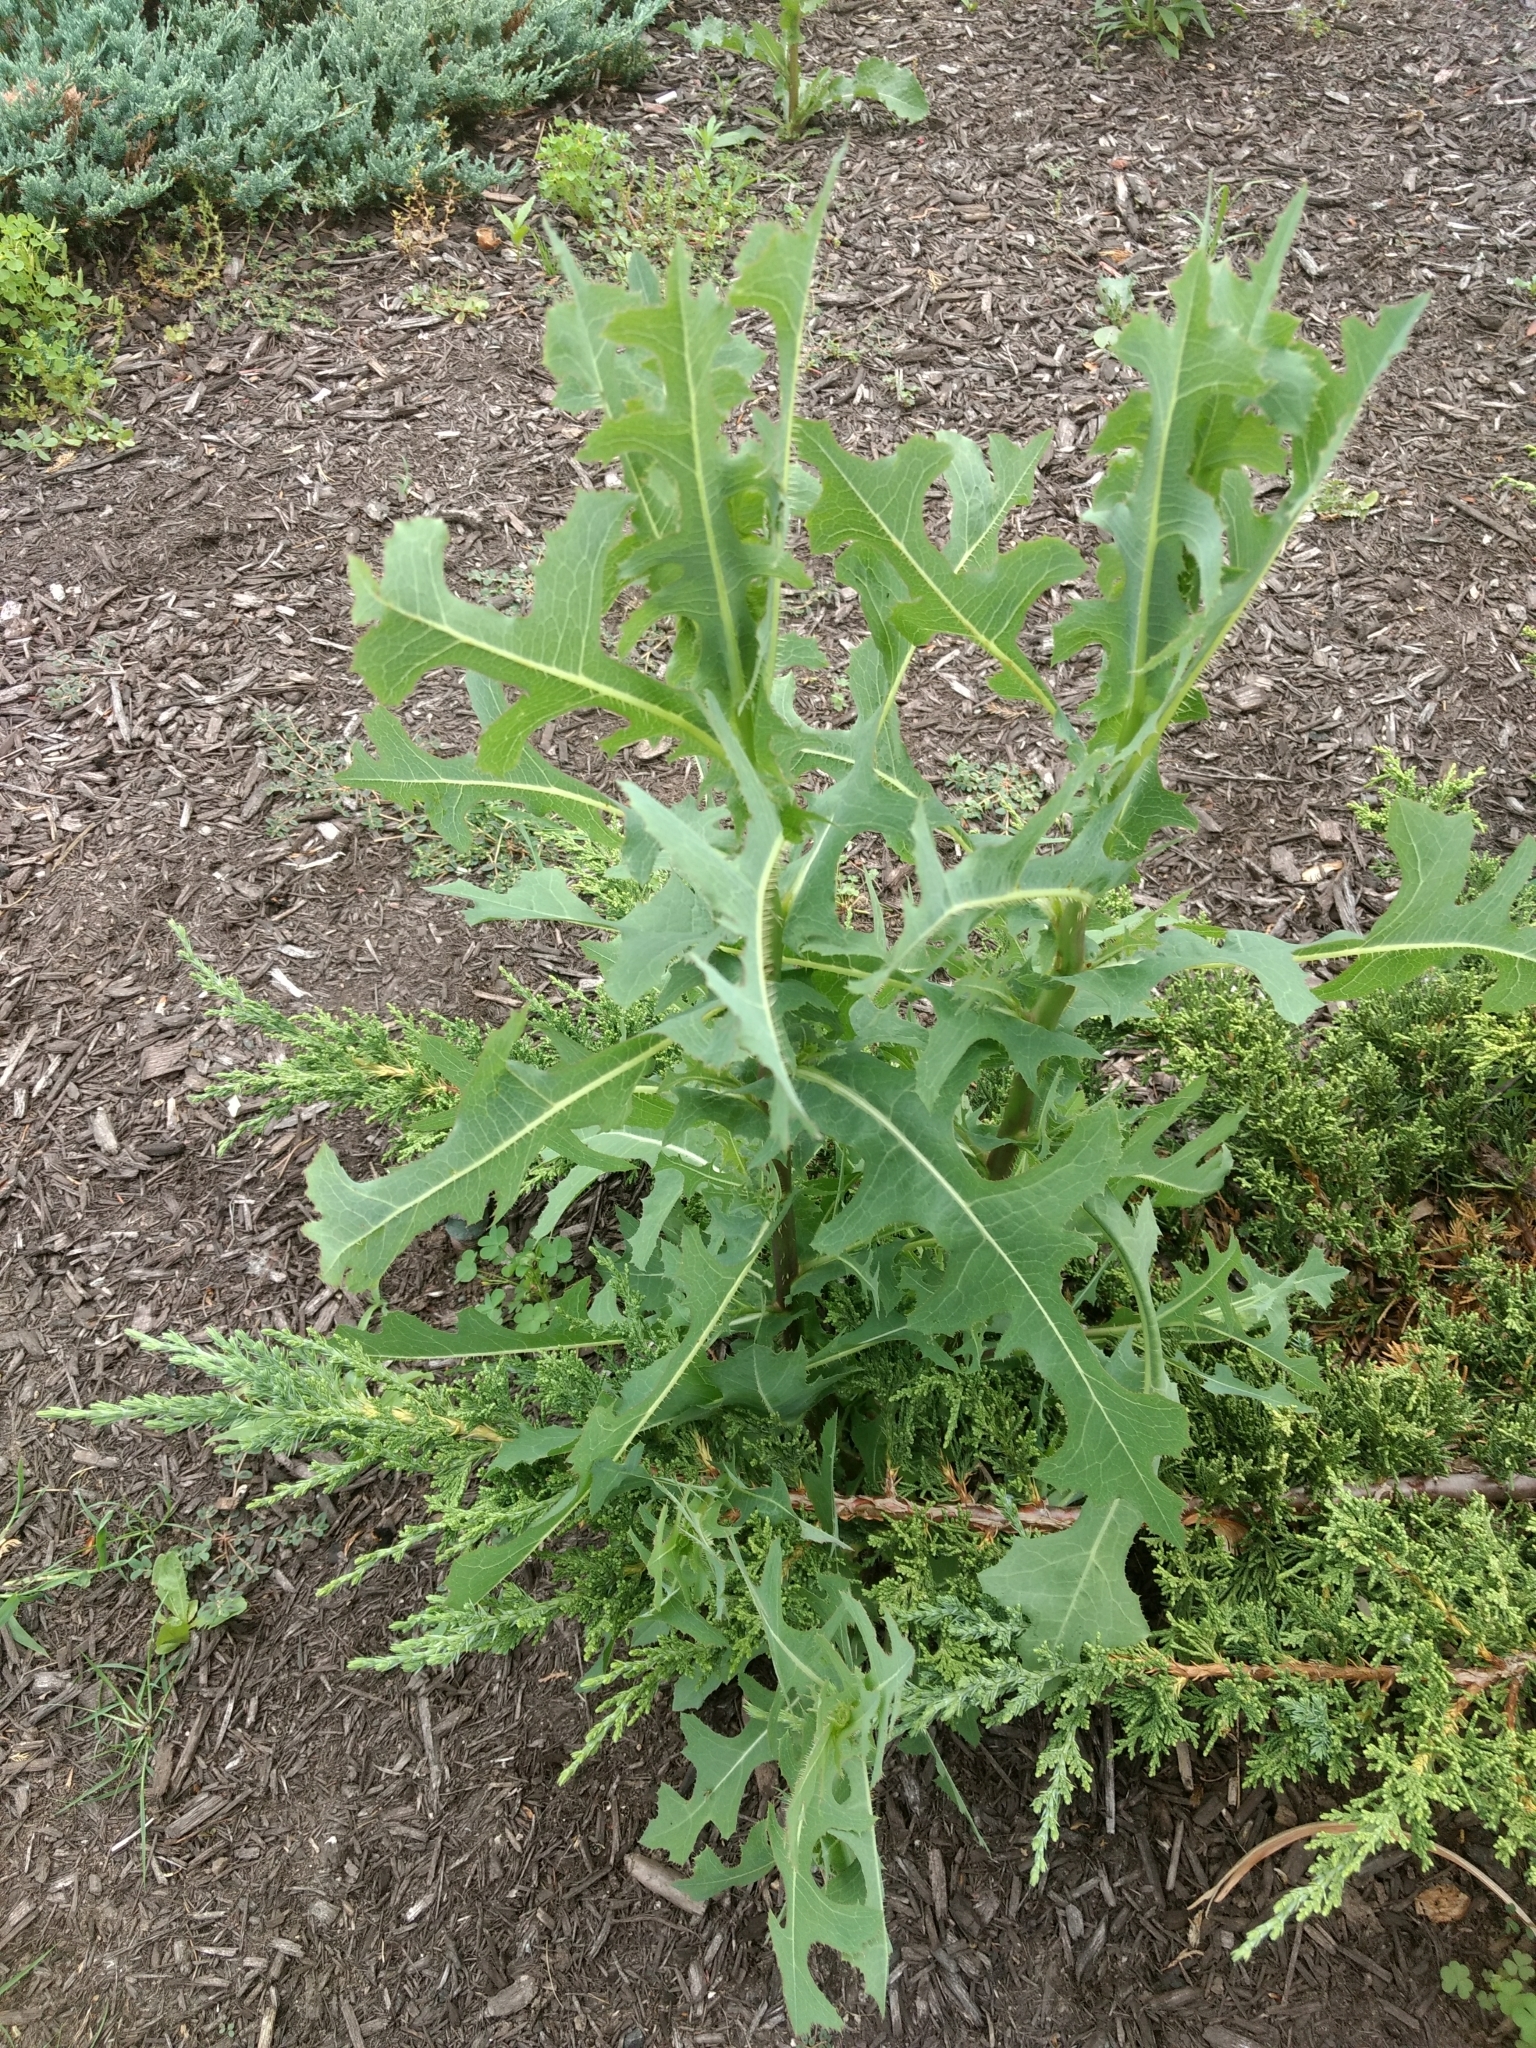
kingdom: Plantae
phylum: Tracheophyta
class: Magnoliopsida
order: Asterales
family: Asteraceae
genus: Lactuca
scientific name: Lactuca serriola
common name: Prickly lettuce
